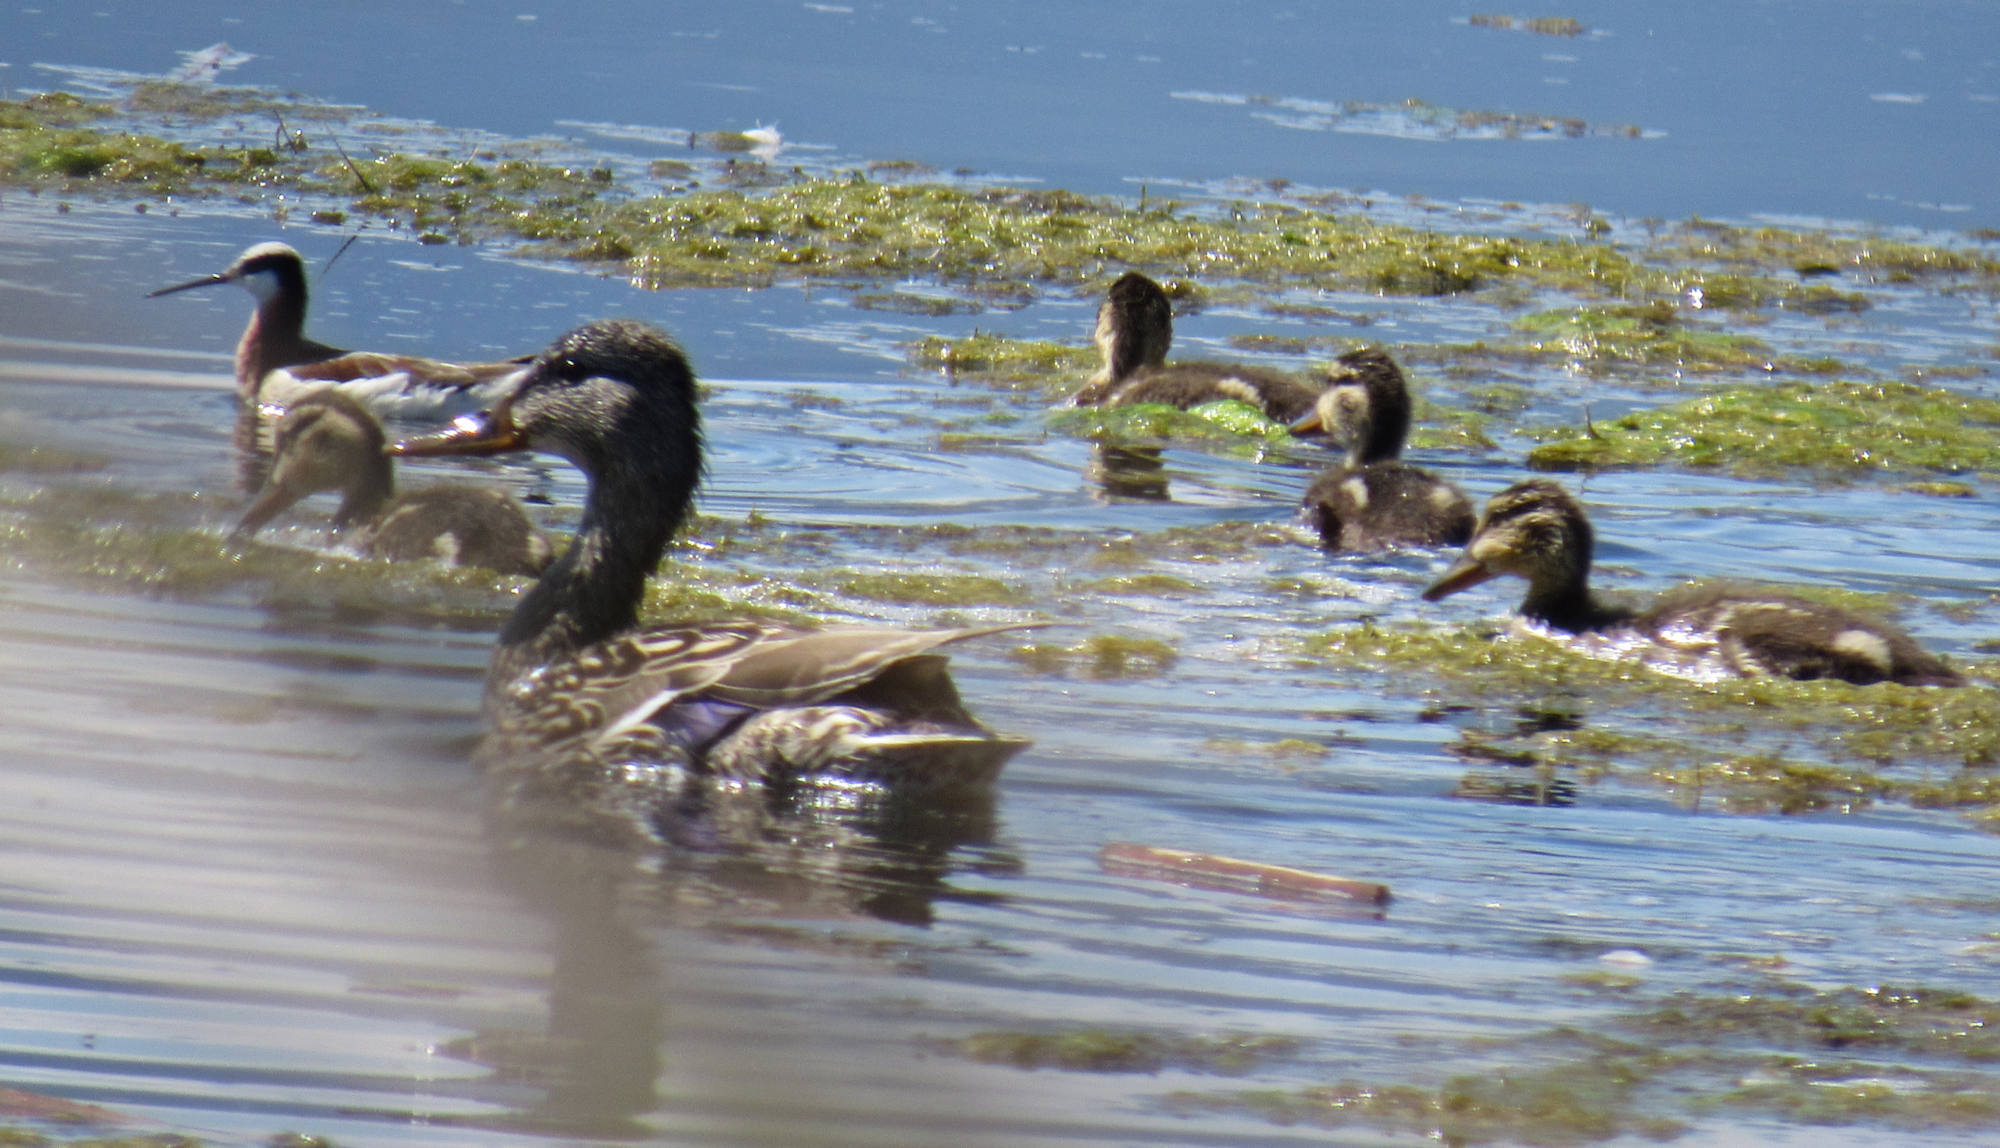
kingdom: Animalia
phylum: Chordata
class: Aves
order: Anseriformes
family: Anatidae
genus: Anas
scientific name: Anas platyrhynchos
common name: Mallard
